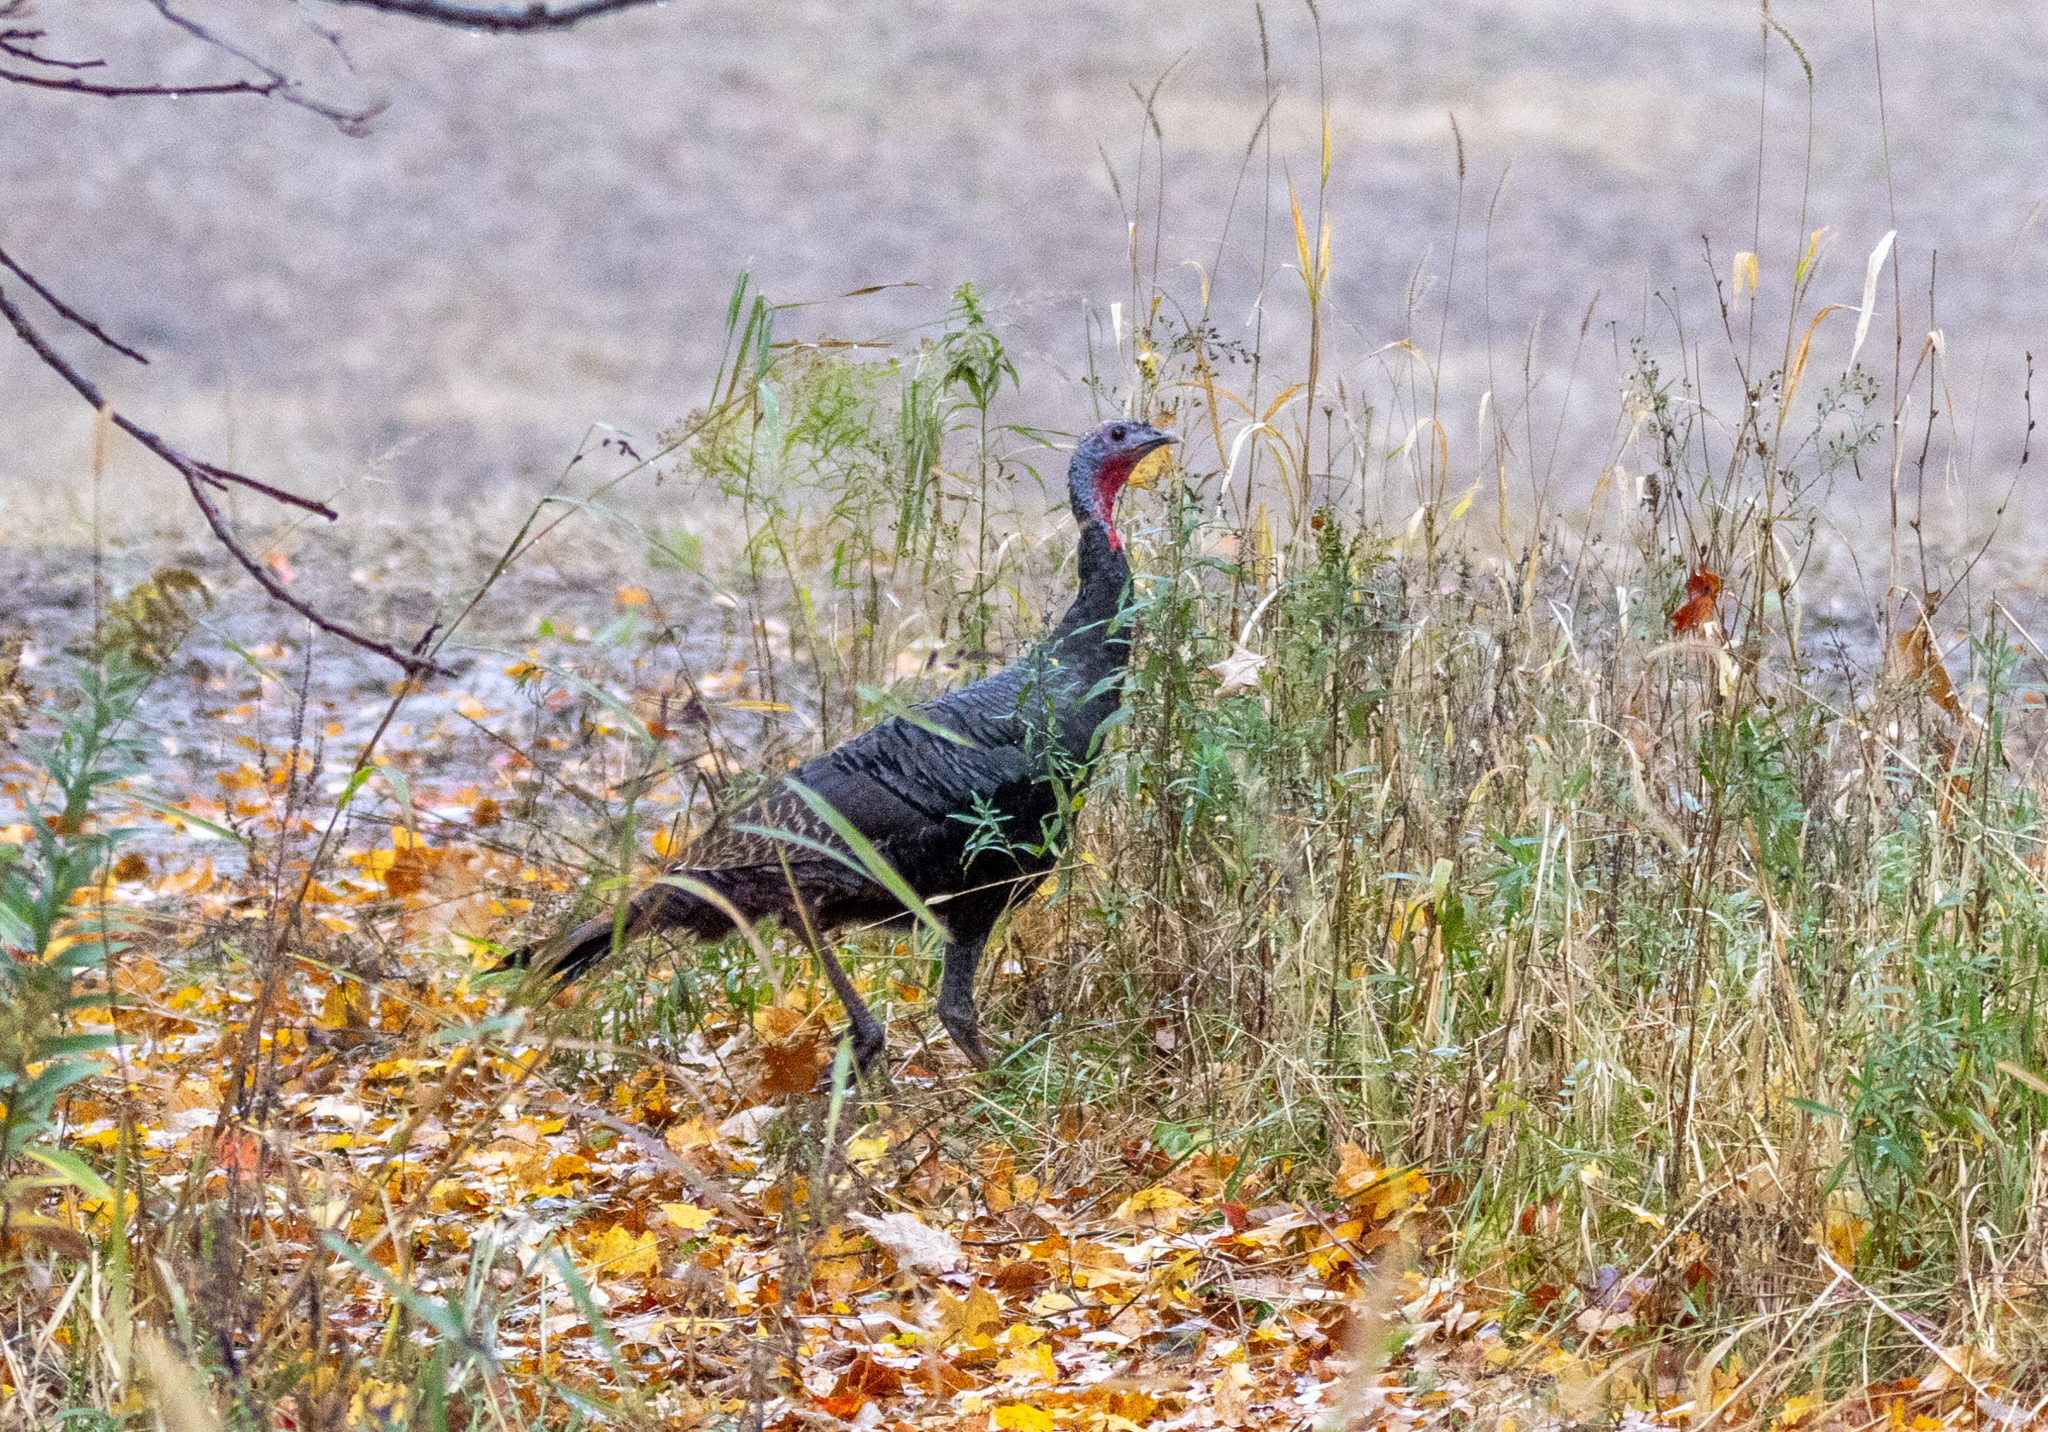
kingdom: Animalia
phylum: Chordata
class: Aves
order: Galliformes
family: Phasianidae
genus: Meleagris
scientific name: Meleagris gallopavo
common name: Wild turkey
